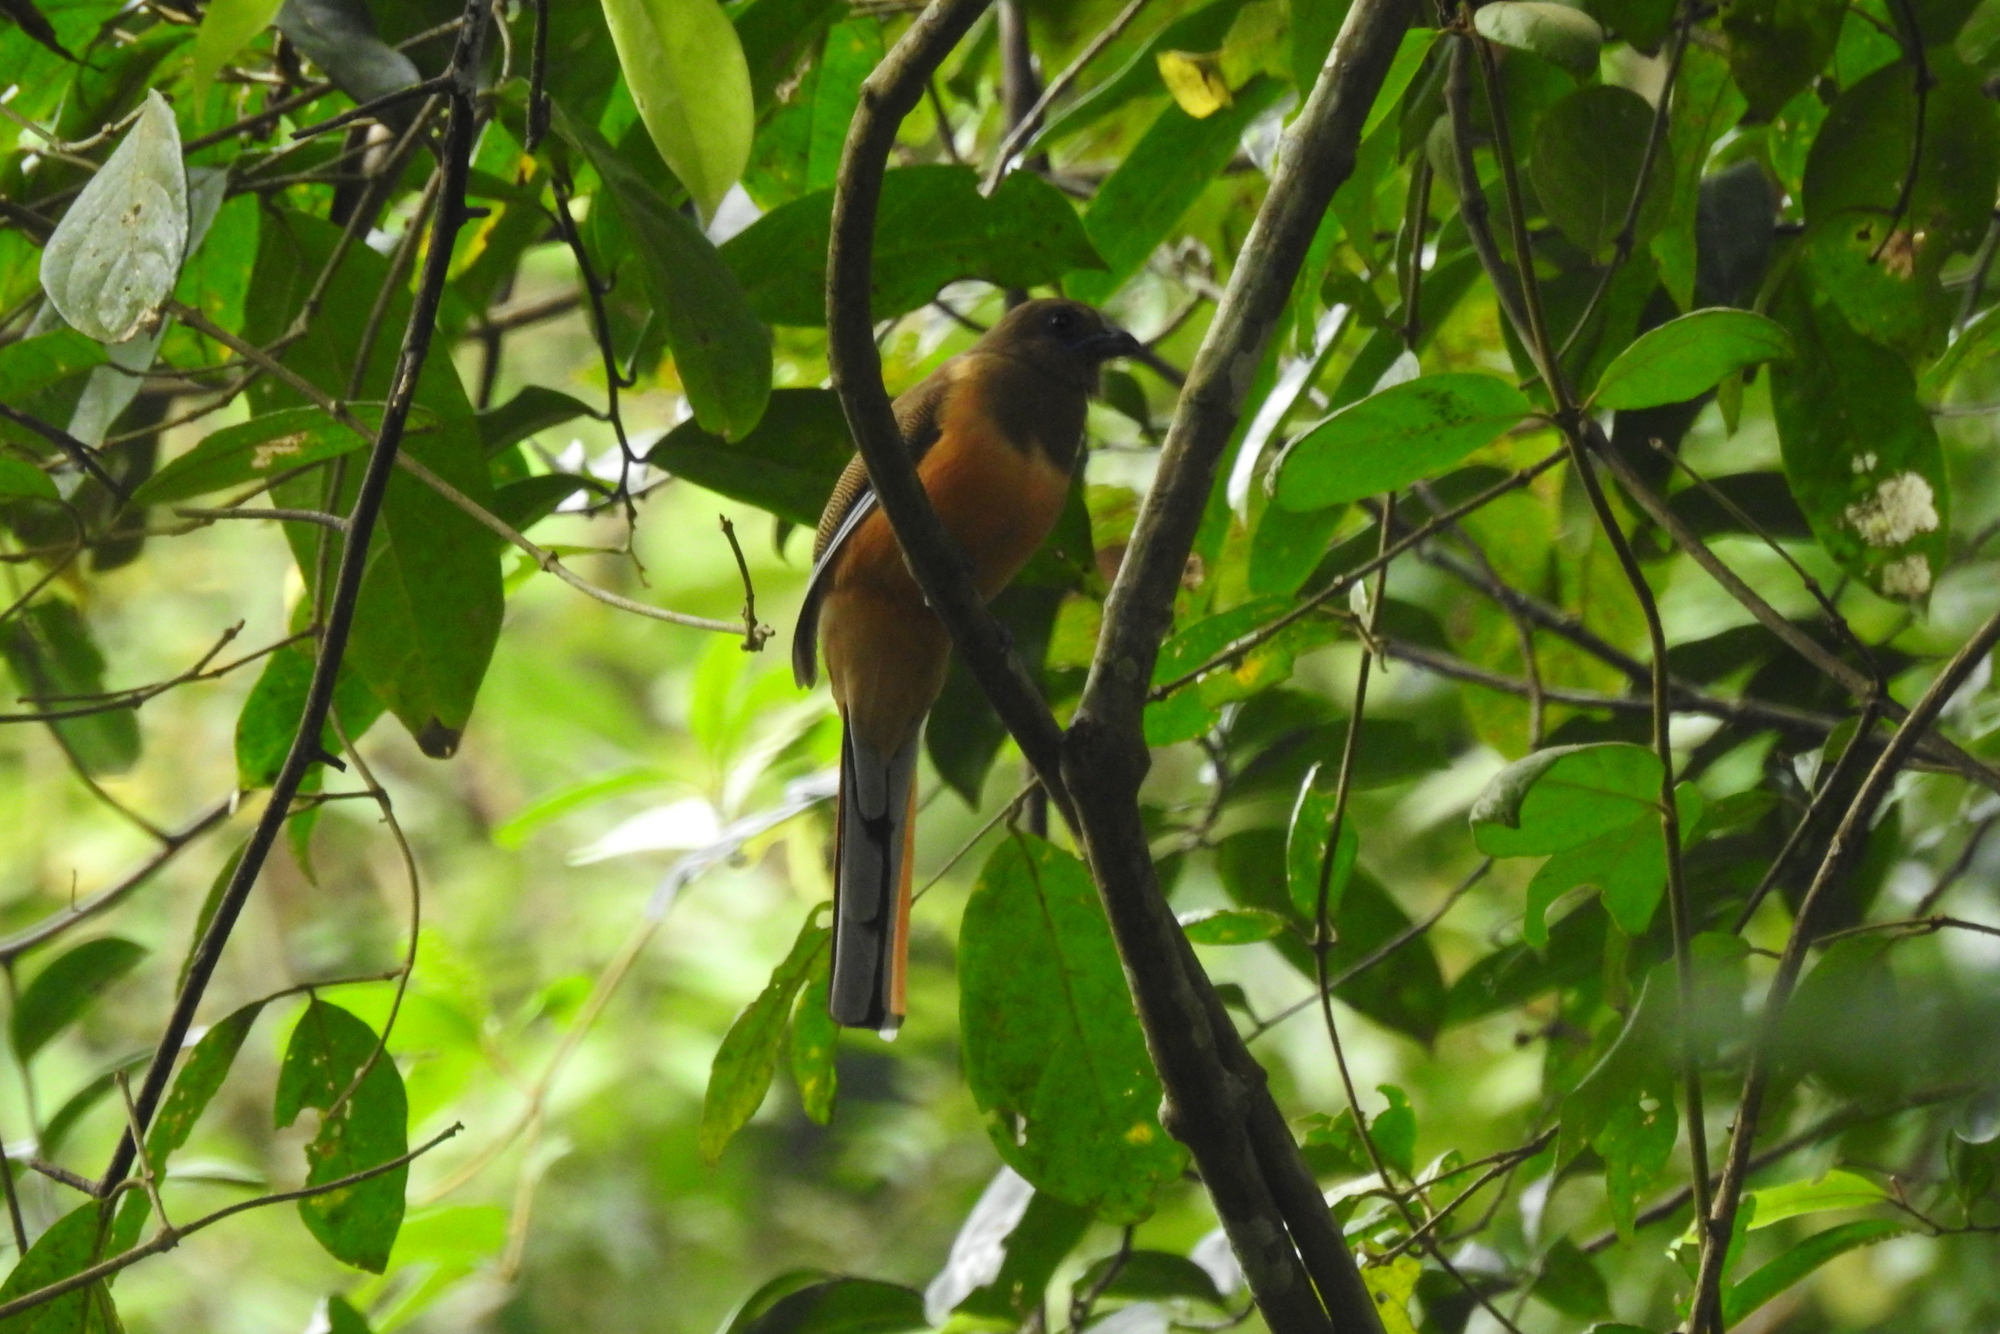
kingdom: Animalia
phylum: Chordata
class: Aves
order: Trogoniformes
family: Trogonidae
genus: Harpactes
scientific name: Harpactes fasciatus
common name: Malabar trogon
